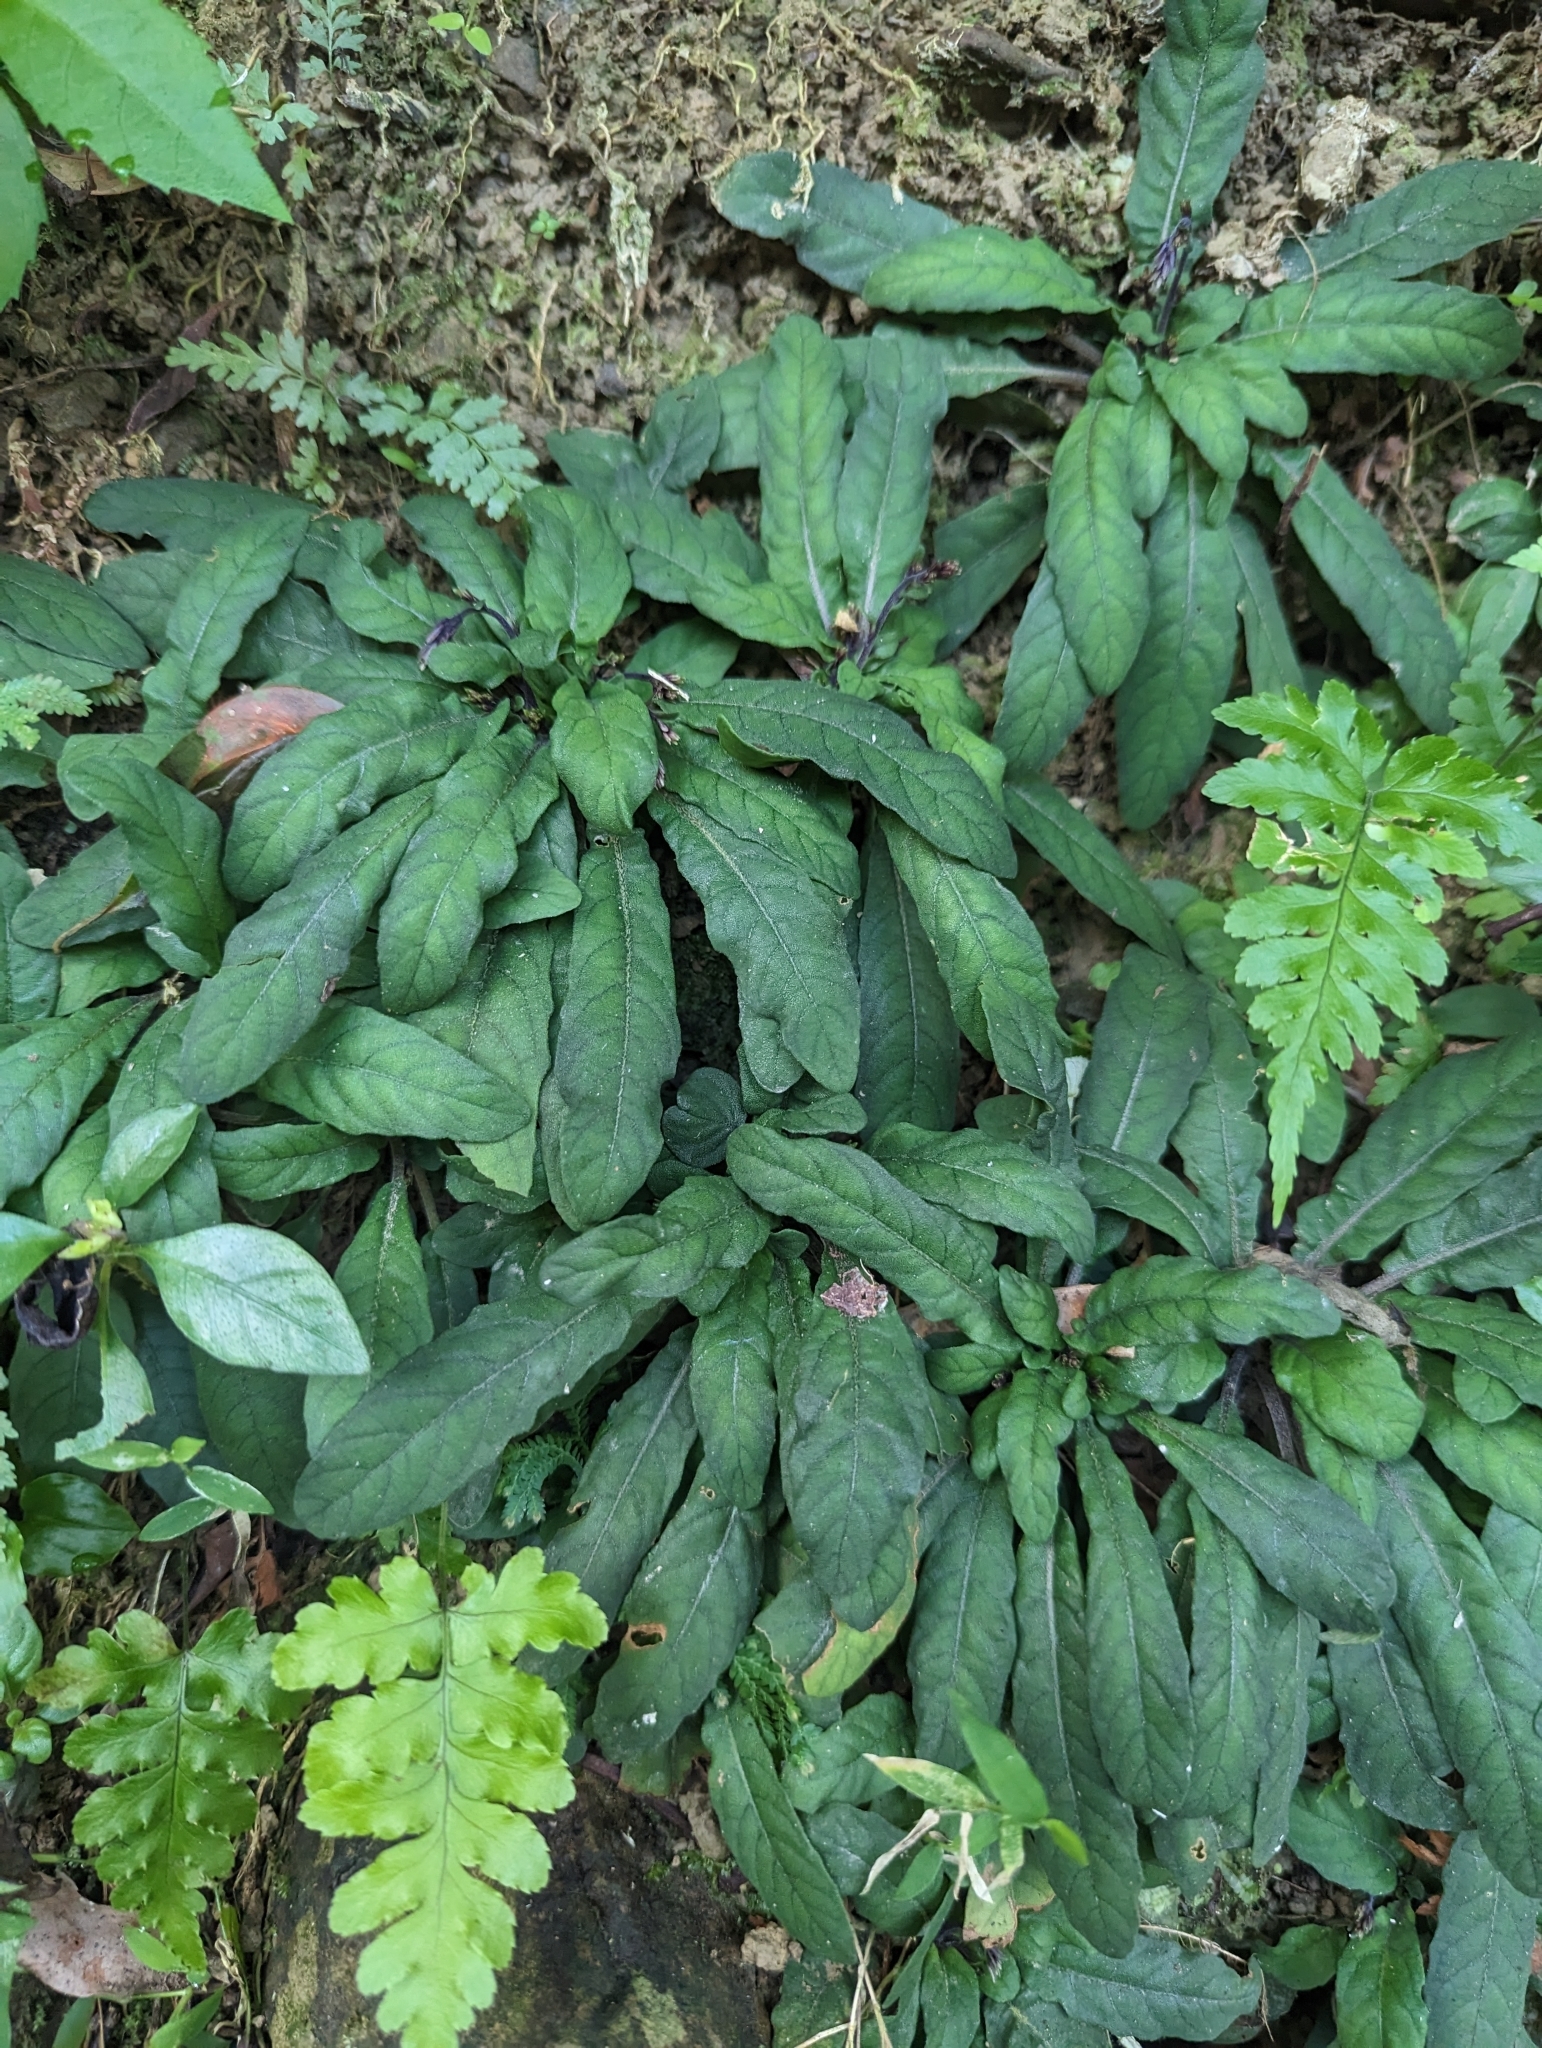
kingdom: Plantae
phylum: Tracheophyta
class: Magnoliopsida
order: Lamiales
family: Acanthaceae
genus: Staurogyne
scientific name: Staurogyne concinnula
